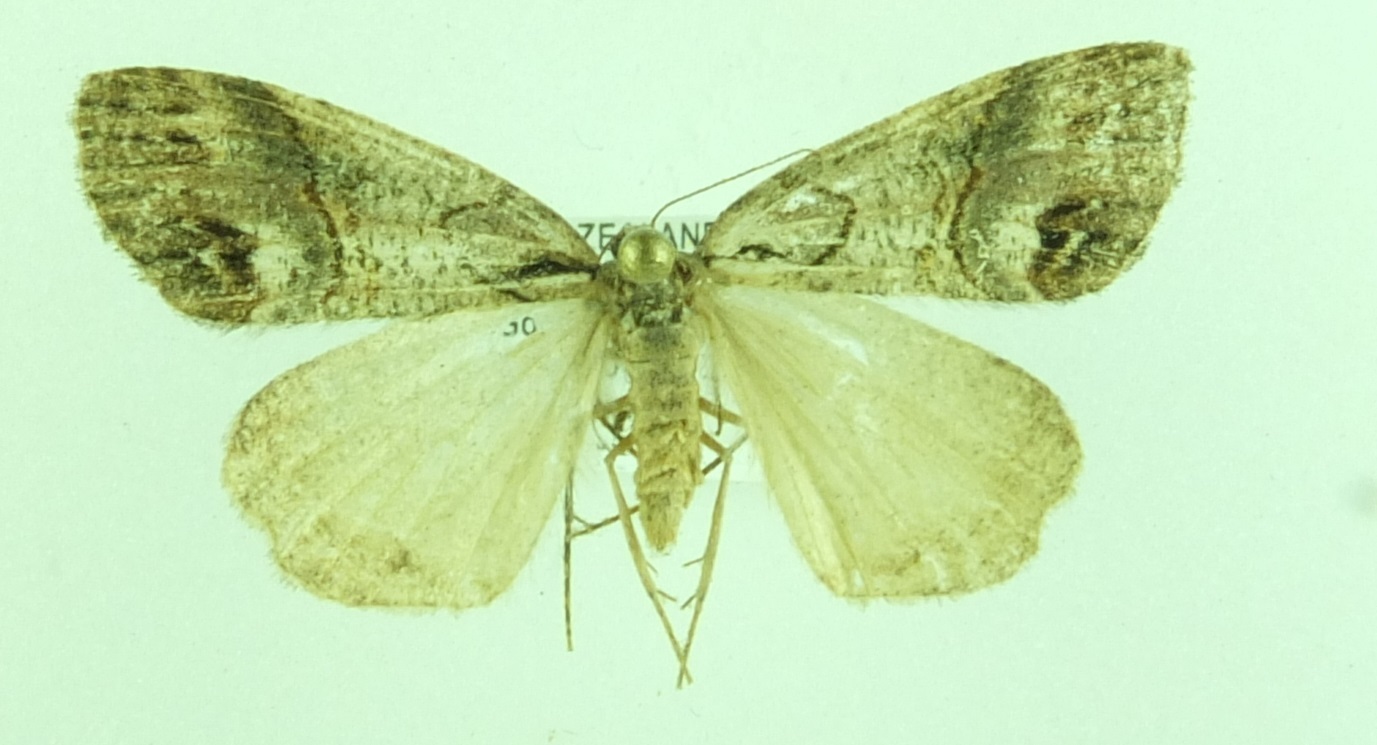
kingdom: Animalia
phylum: Arthropoda
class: Insecta
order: Lepidoptera
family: Geometridae
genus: Chalastra
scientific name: Chalastra ochrea
